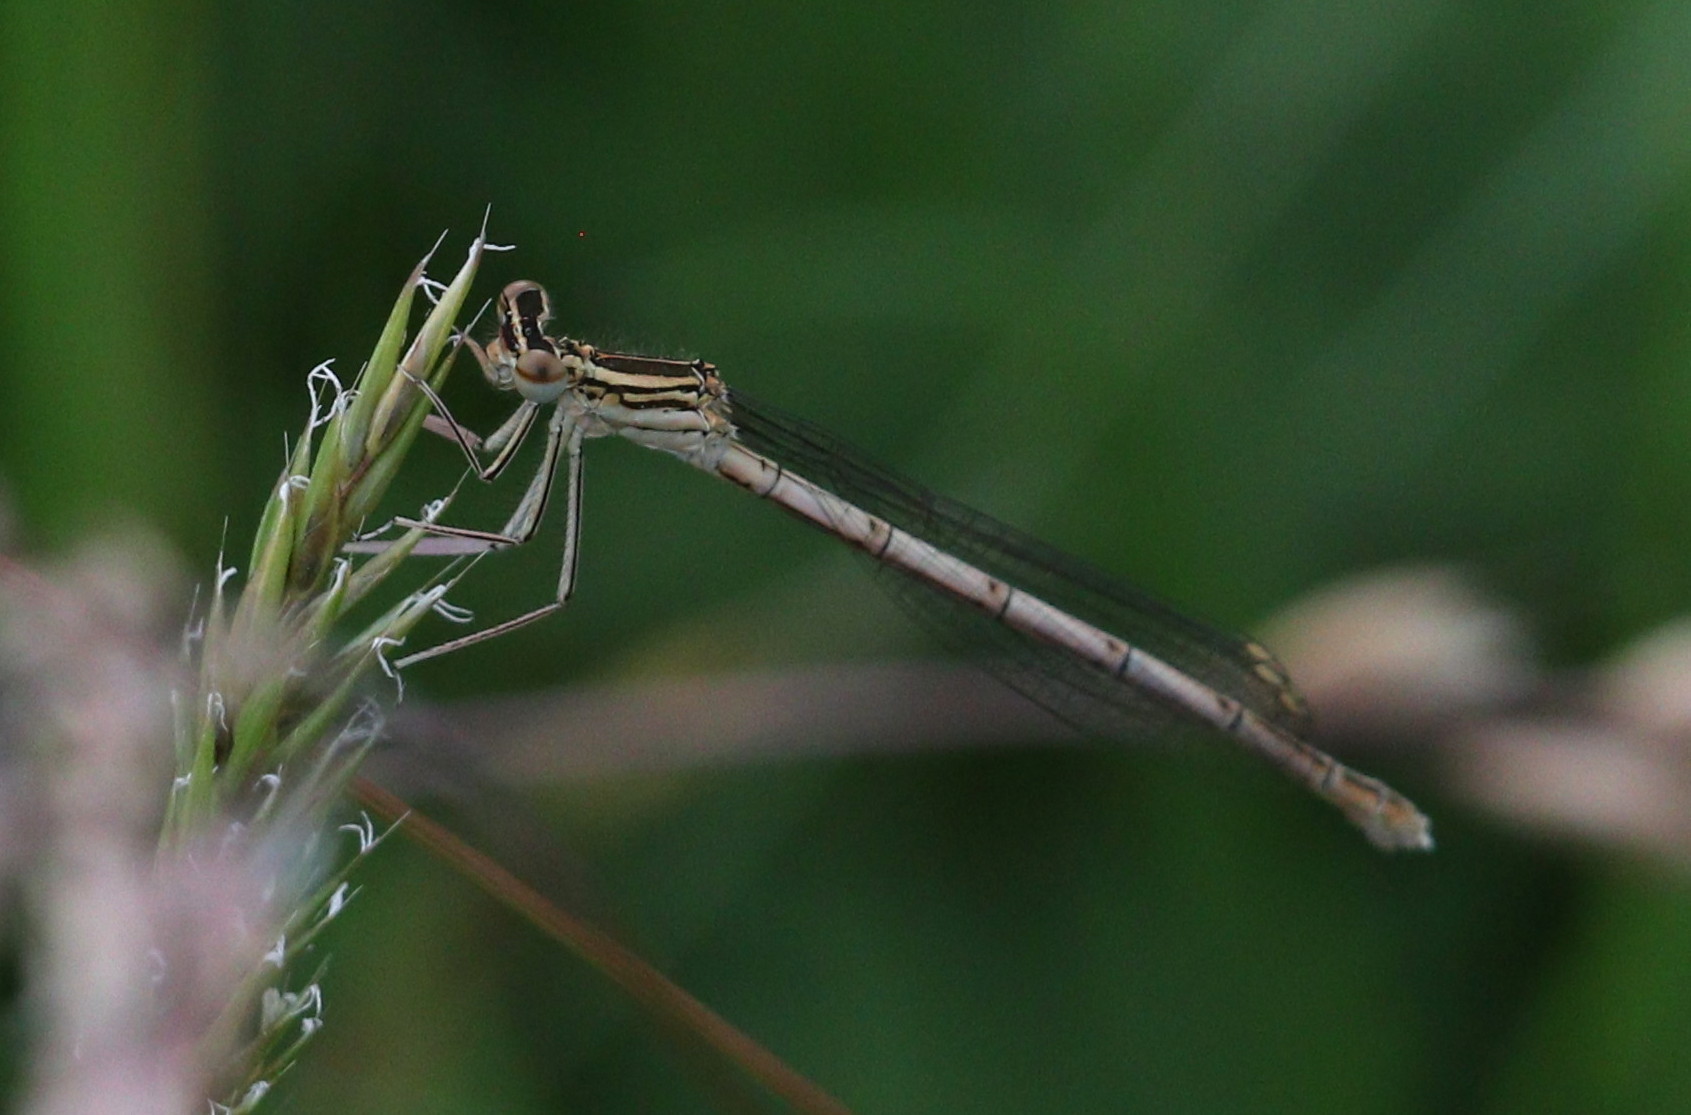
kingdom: Animalia
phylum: Arthropoda
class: Insecta
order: Odonata
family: Platycnemididae
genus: Platycnemis
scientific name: Platycnemis pennipes
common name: White-legged damselfly
